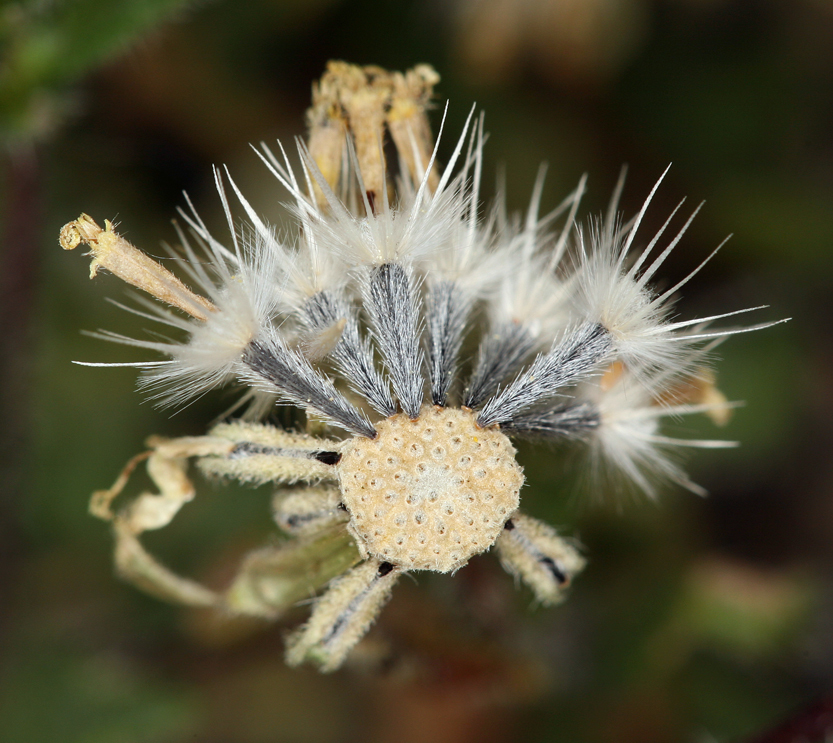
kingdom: Plantae
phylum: Tracheophyta
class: Magnoliopsida
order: Asterales
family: Asteraceae
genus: Layia
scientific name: Layia glandulosa
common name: White layia
